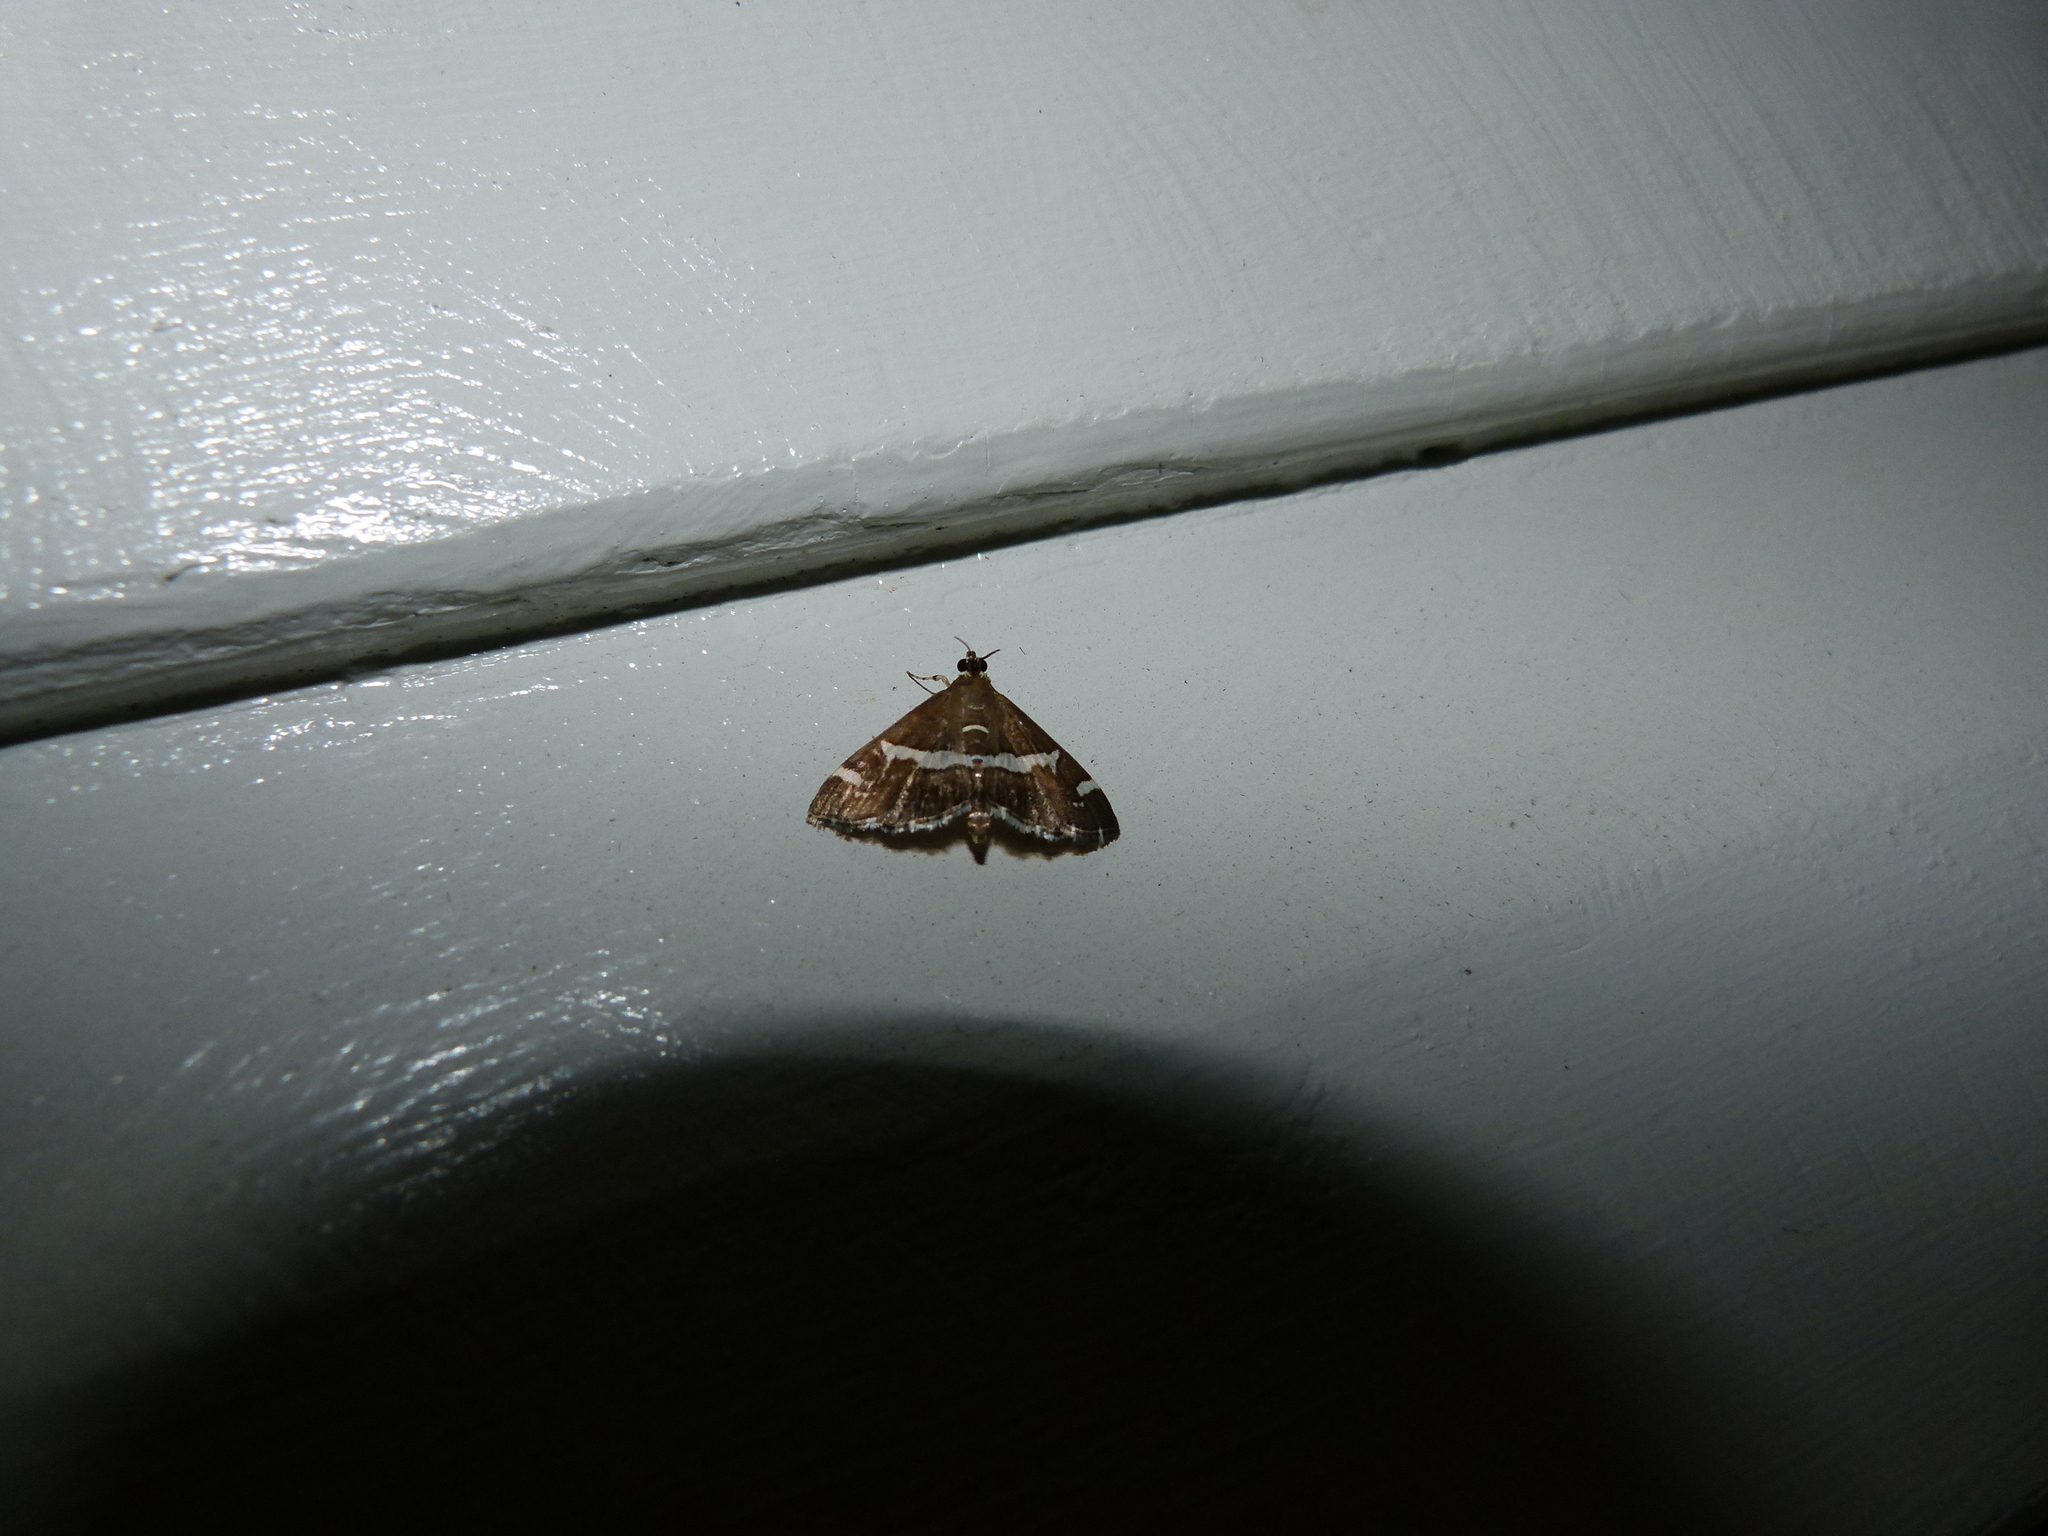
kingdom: Animalia
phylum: Arthropoda
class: Insecta
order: Lepidoptera
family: Crambidae
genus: Spoladea
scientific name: Spoladea recurvalis
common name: Beet webworm moth
